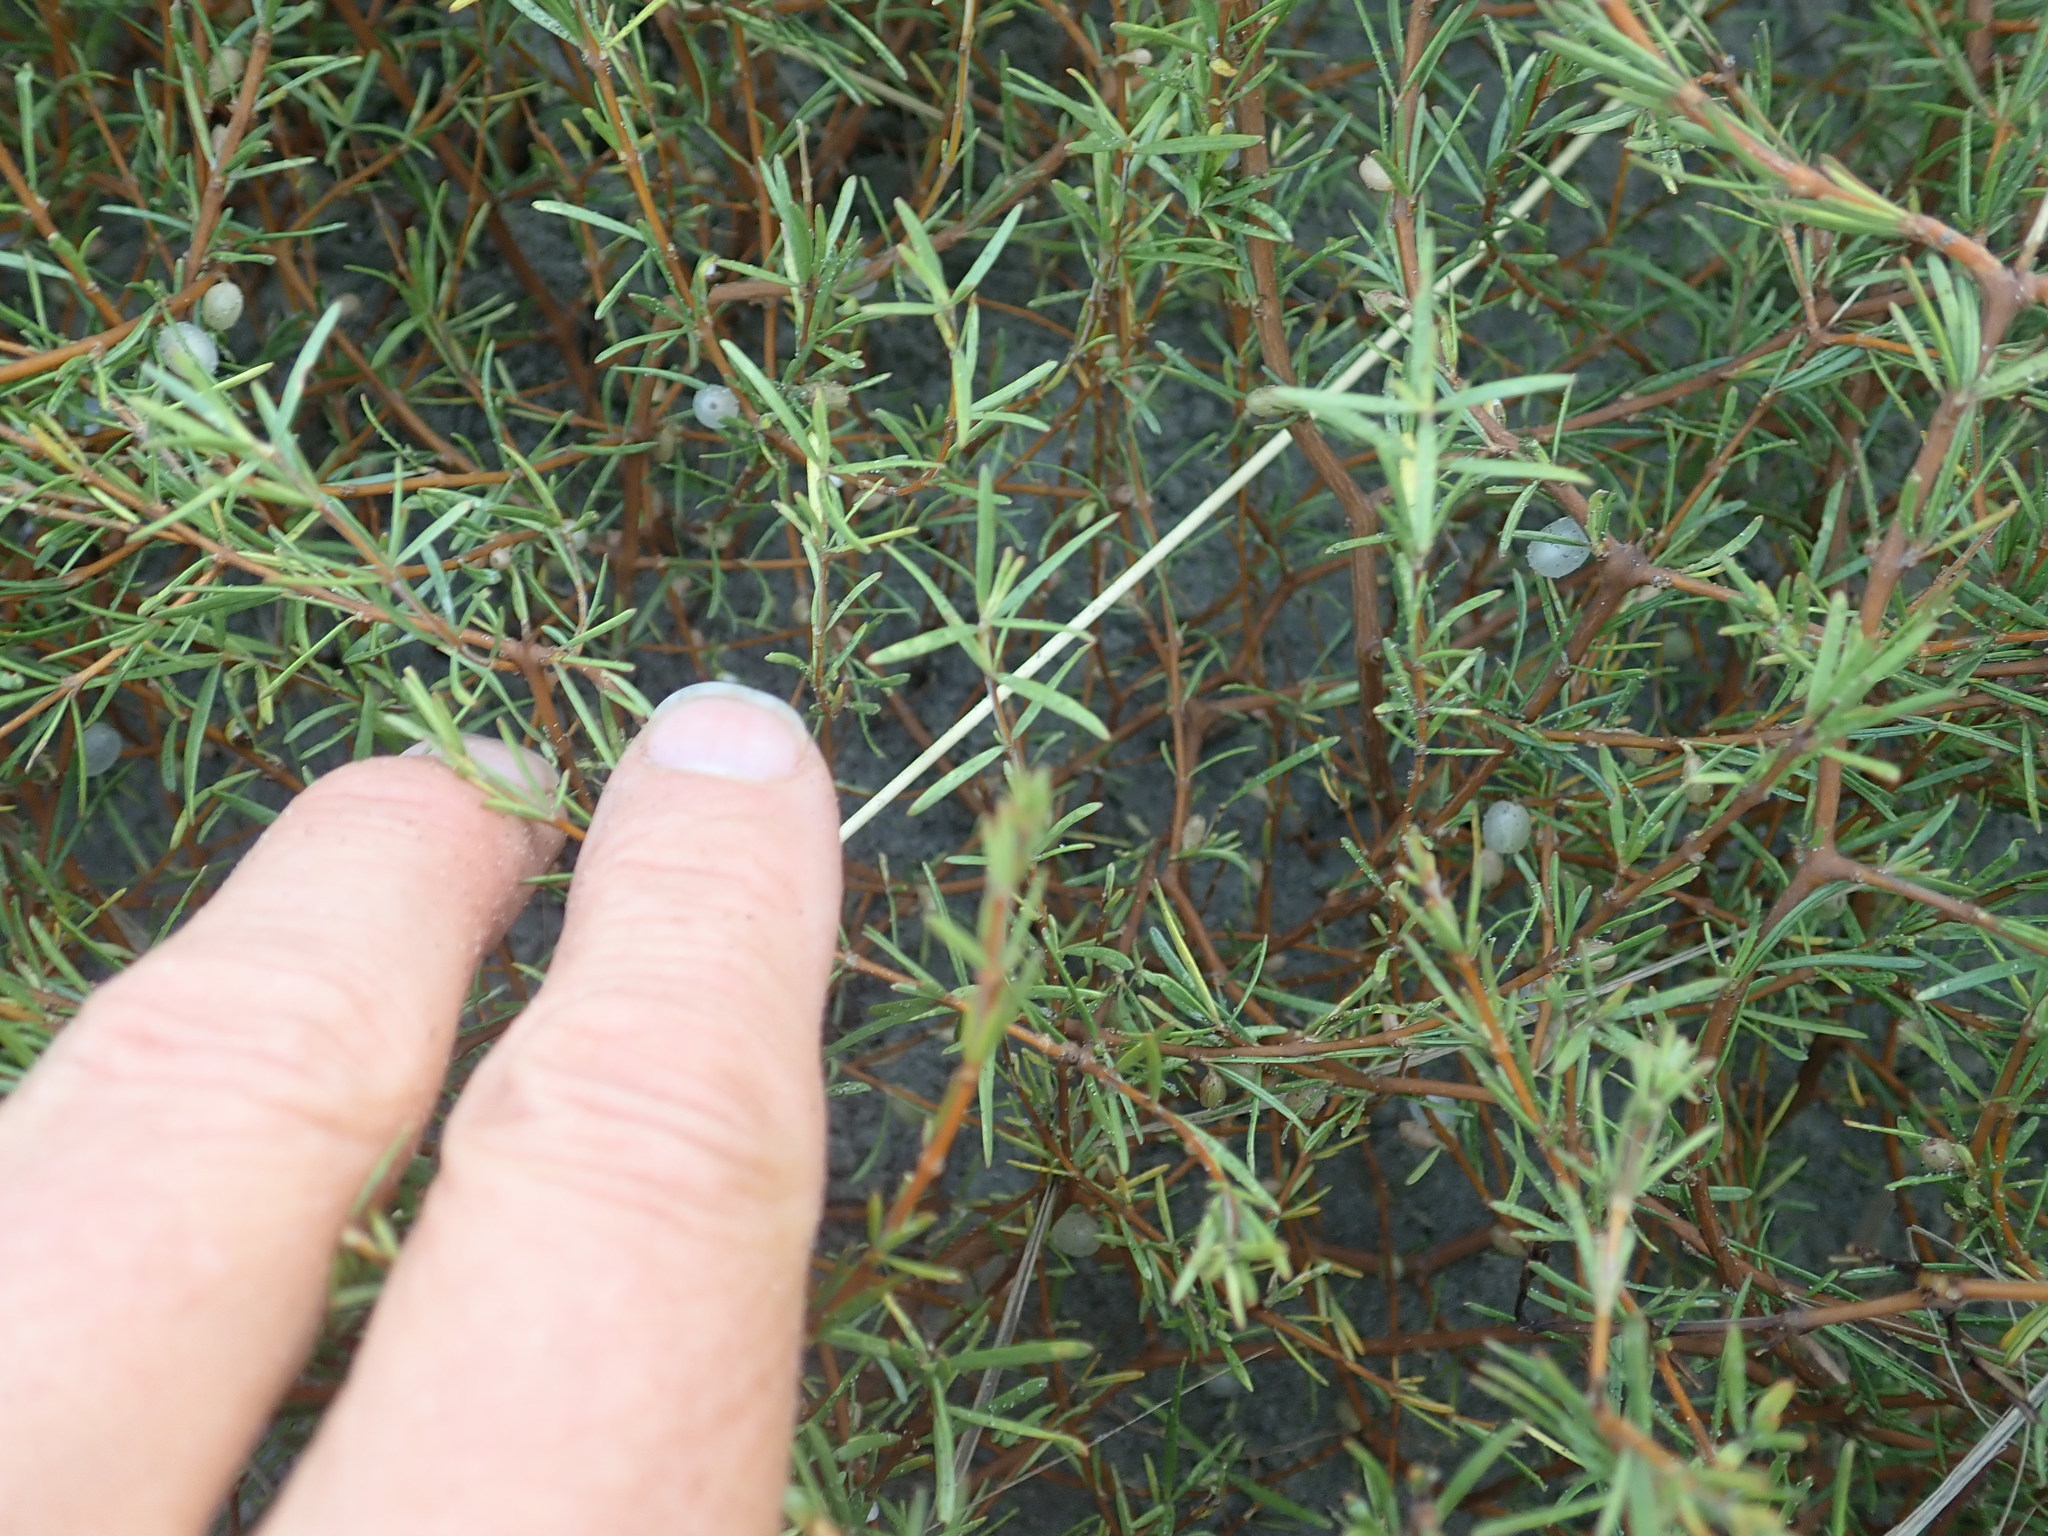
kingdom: Plantae
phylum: Tracheophyta
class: Magnoliopsida
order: Gentianales
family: Rubiaceae
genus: Coprosma
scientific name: Coprosma acerosa
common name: Sand coprosma
